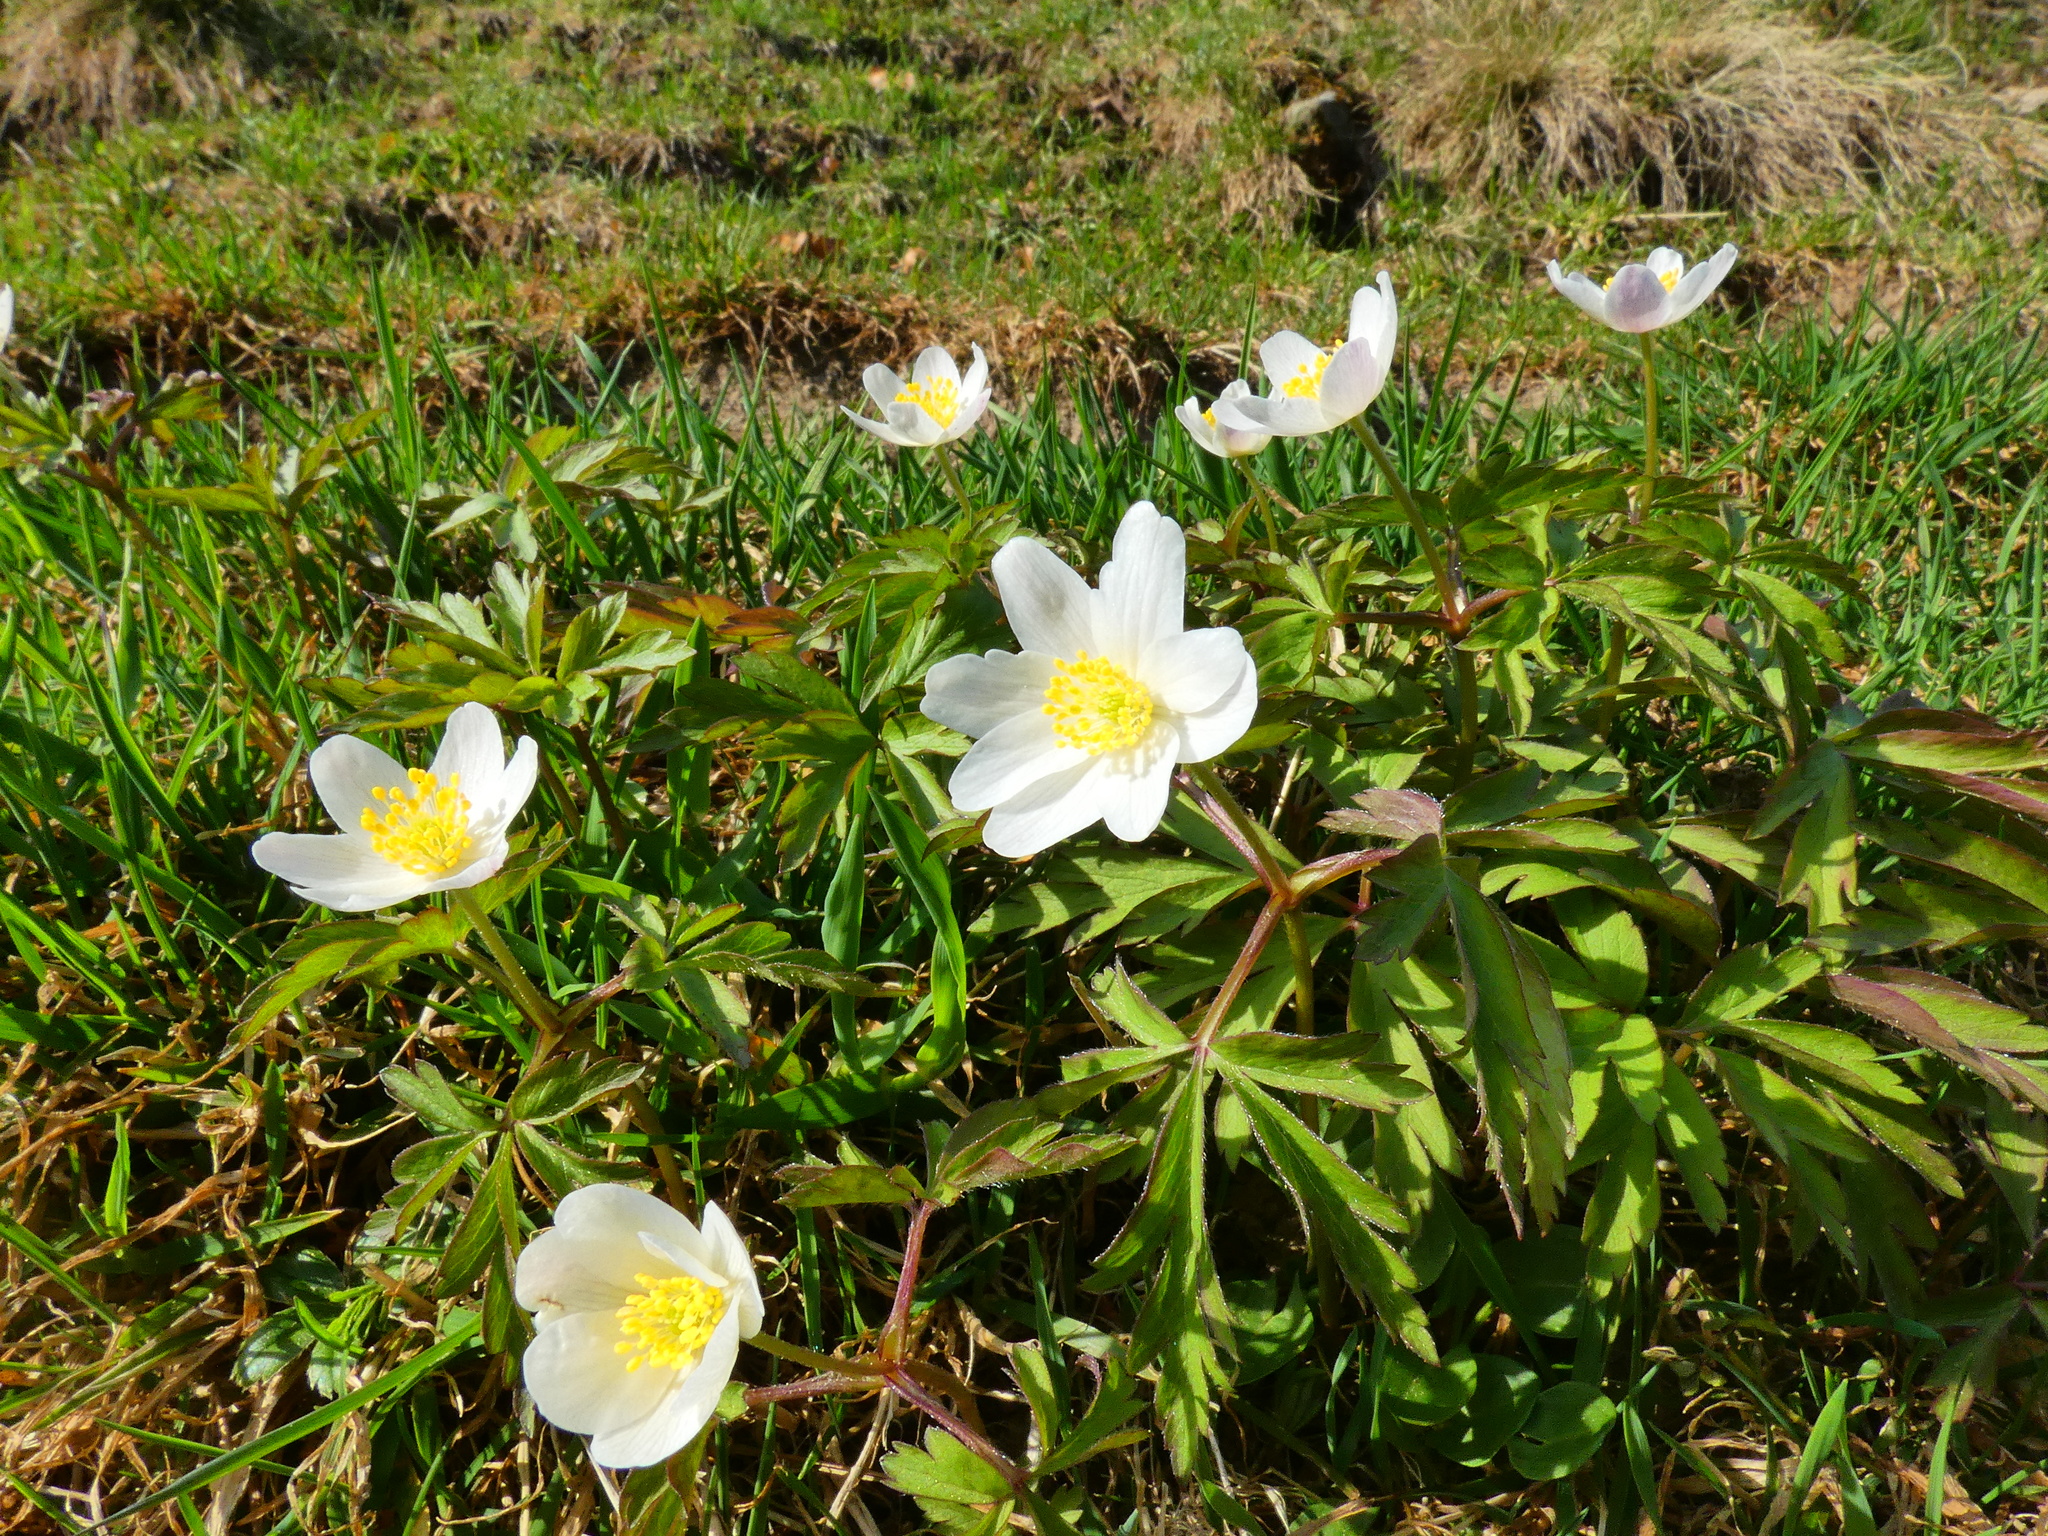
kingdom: Plantae
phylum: Tracheophyta
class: Magnoliopsida
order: Ranunculales
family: Ranunculaceae
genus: Anemone
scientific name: Anemone nemorosa
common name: Wood anemone
